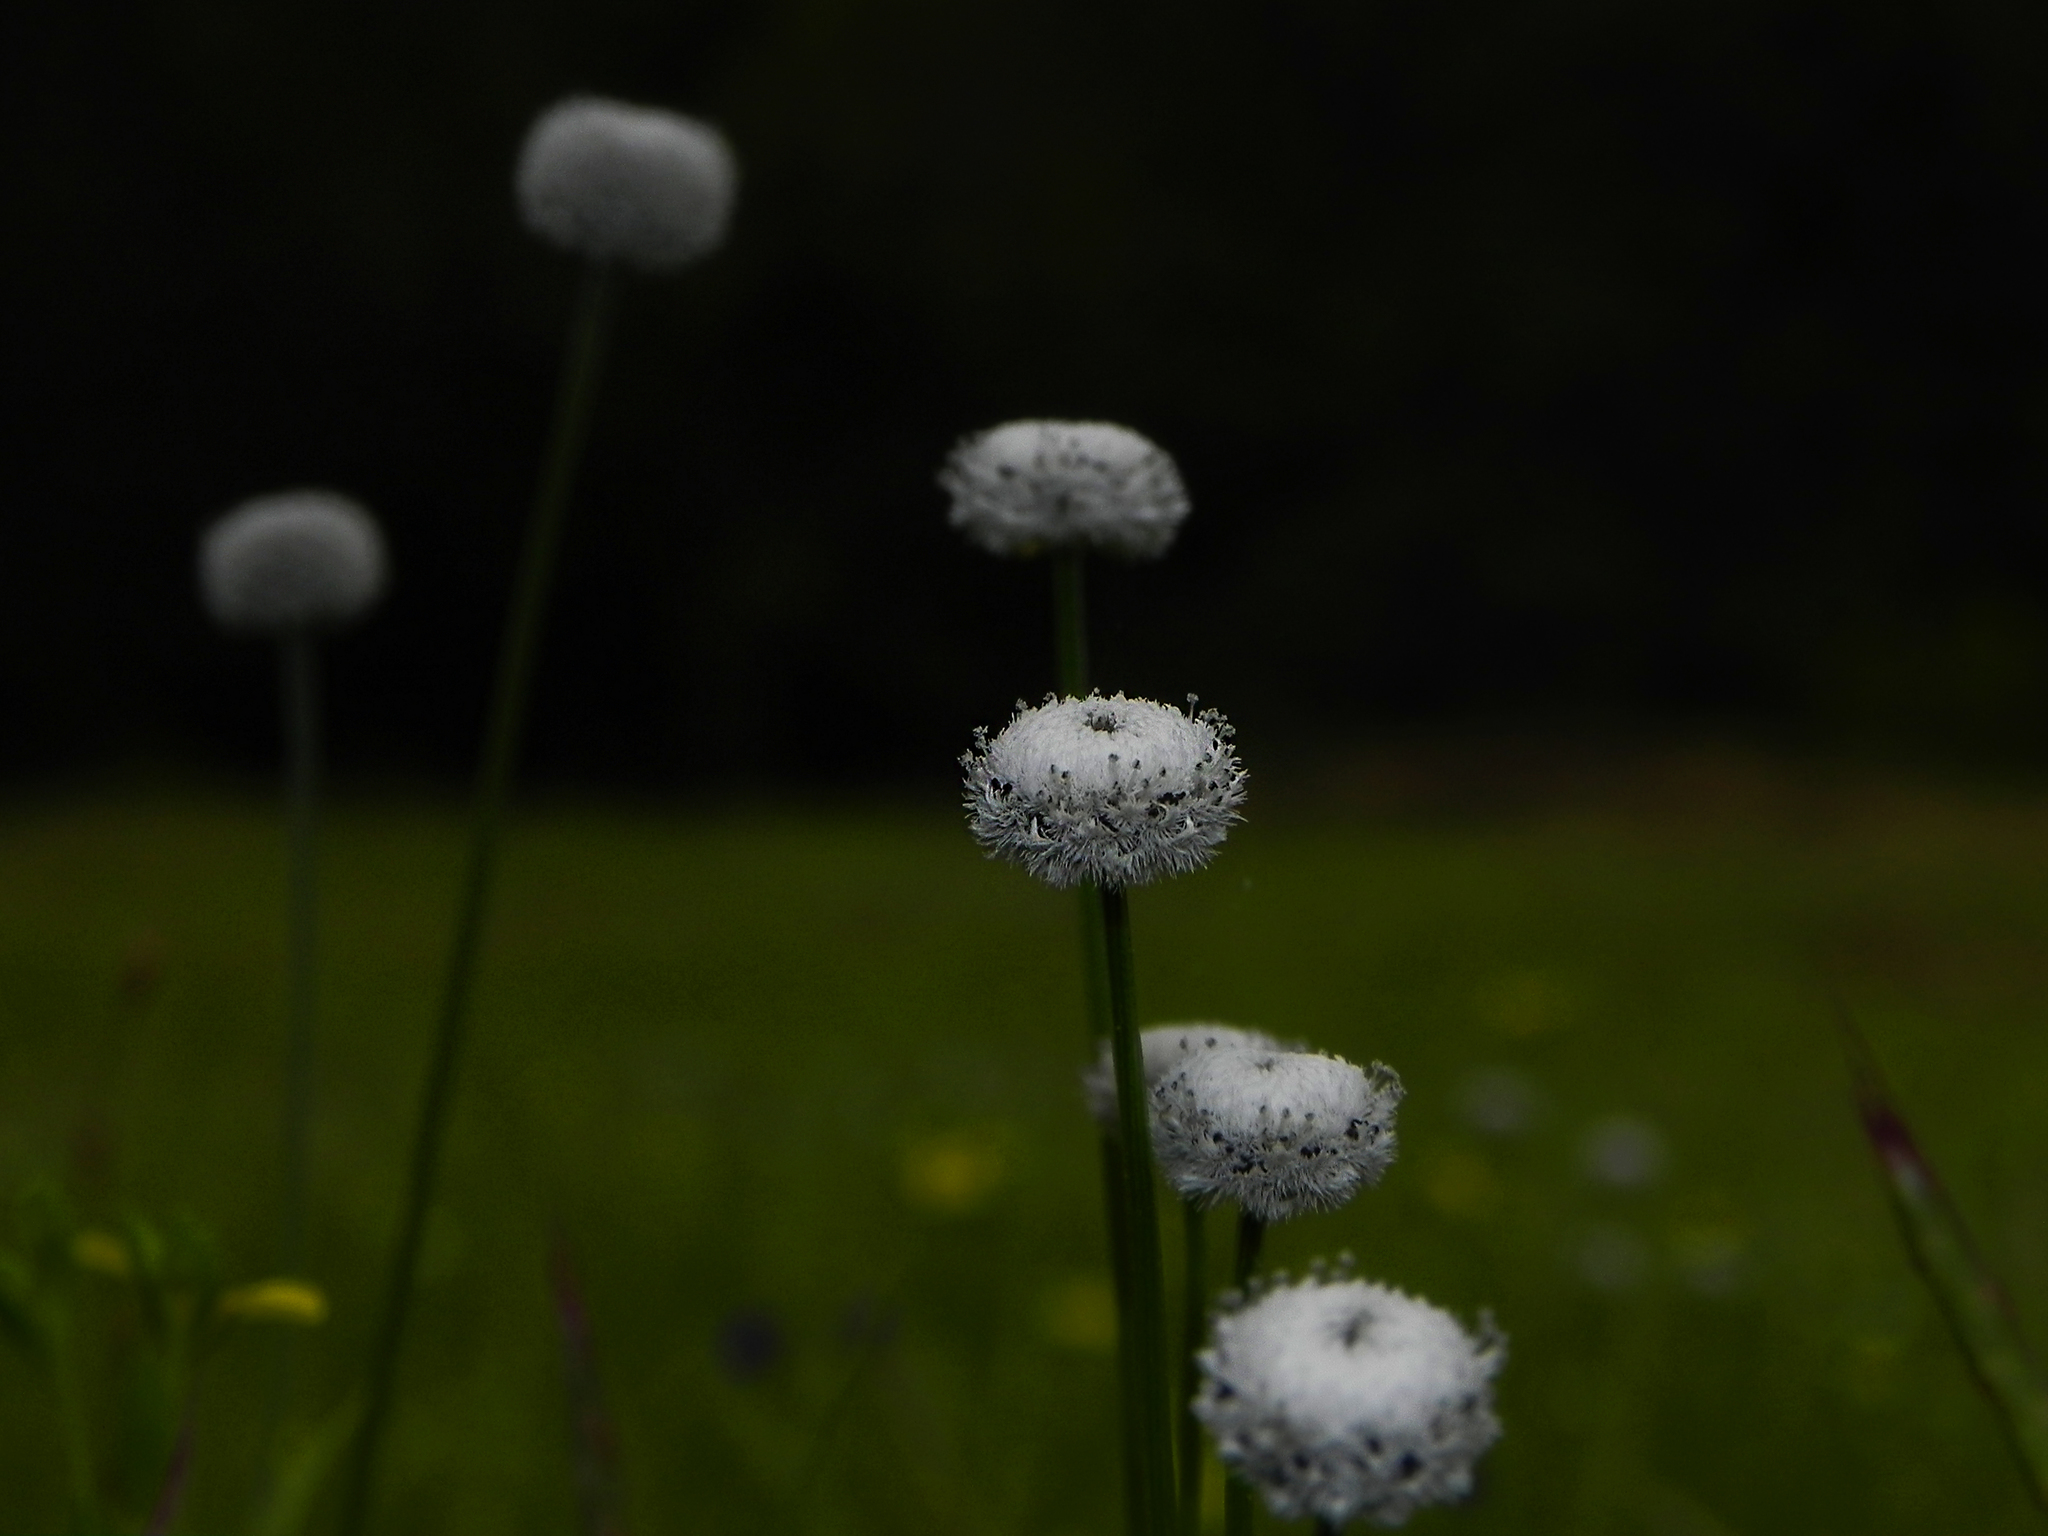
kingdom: Plantae
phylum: Tracheophyta
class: Liliopsida
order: Poales
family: Eriocaulaceae
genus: Eriocaulon
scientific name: Eriocaulon sedgwickii
